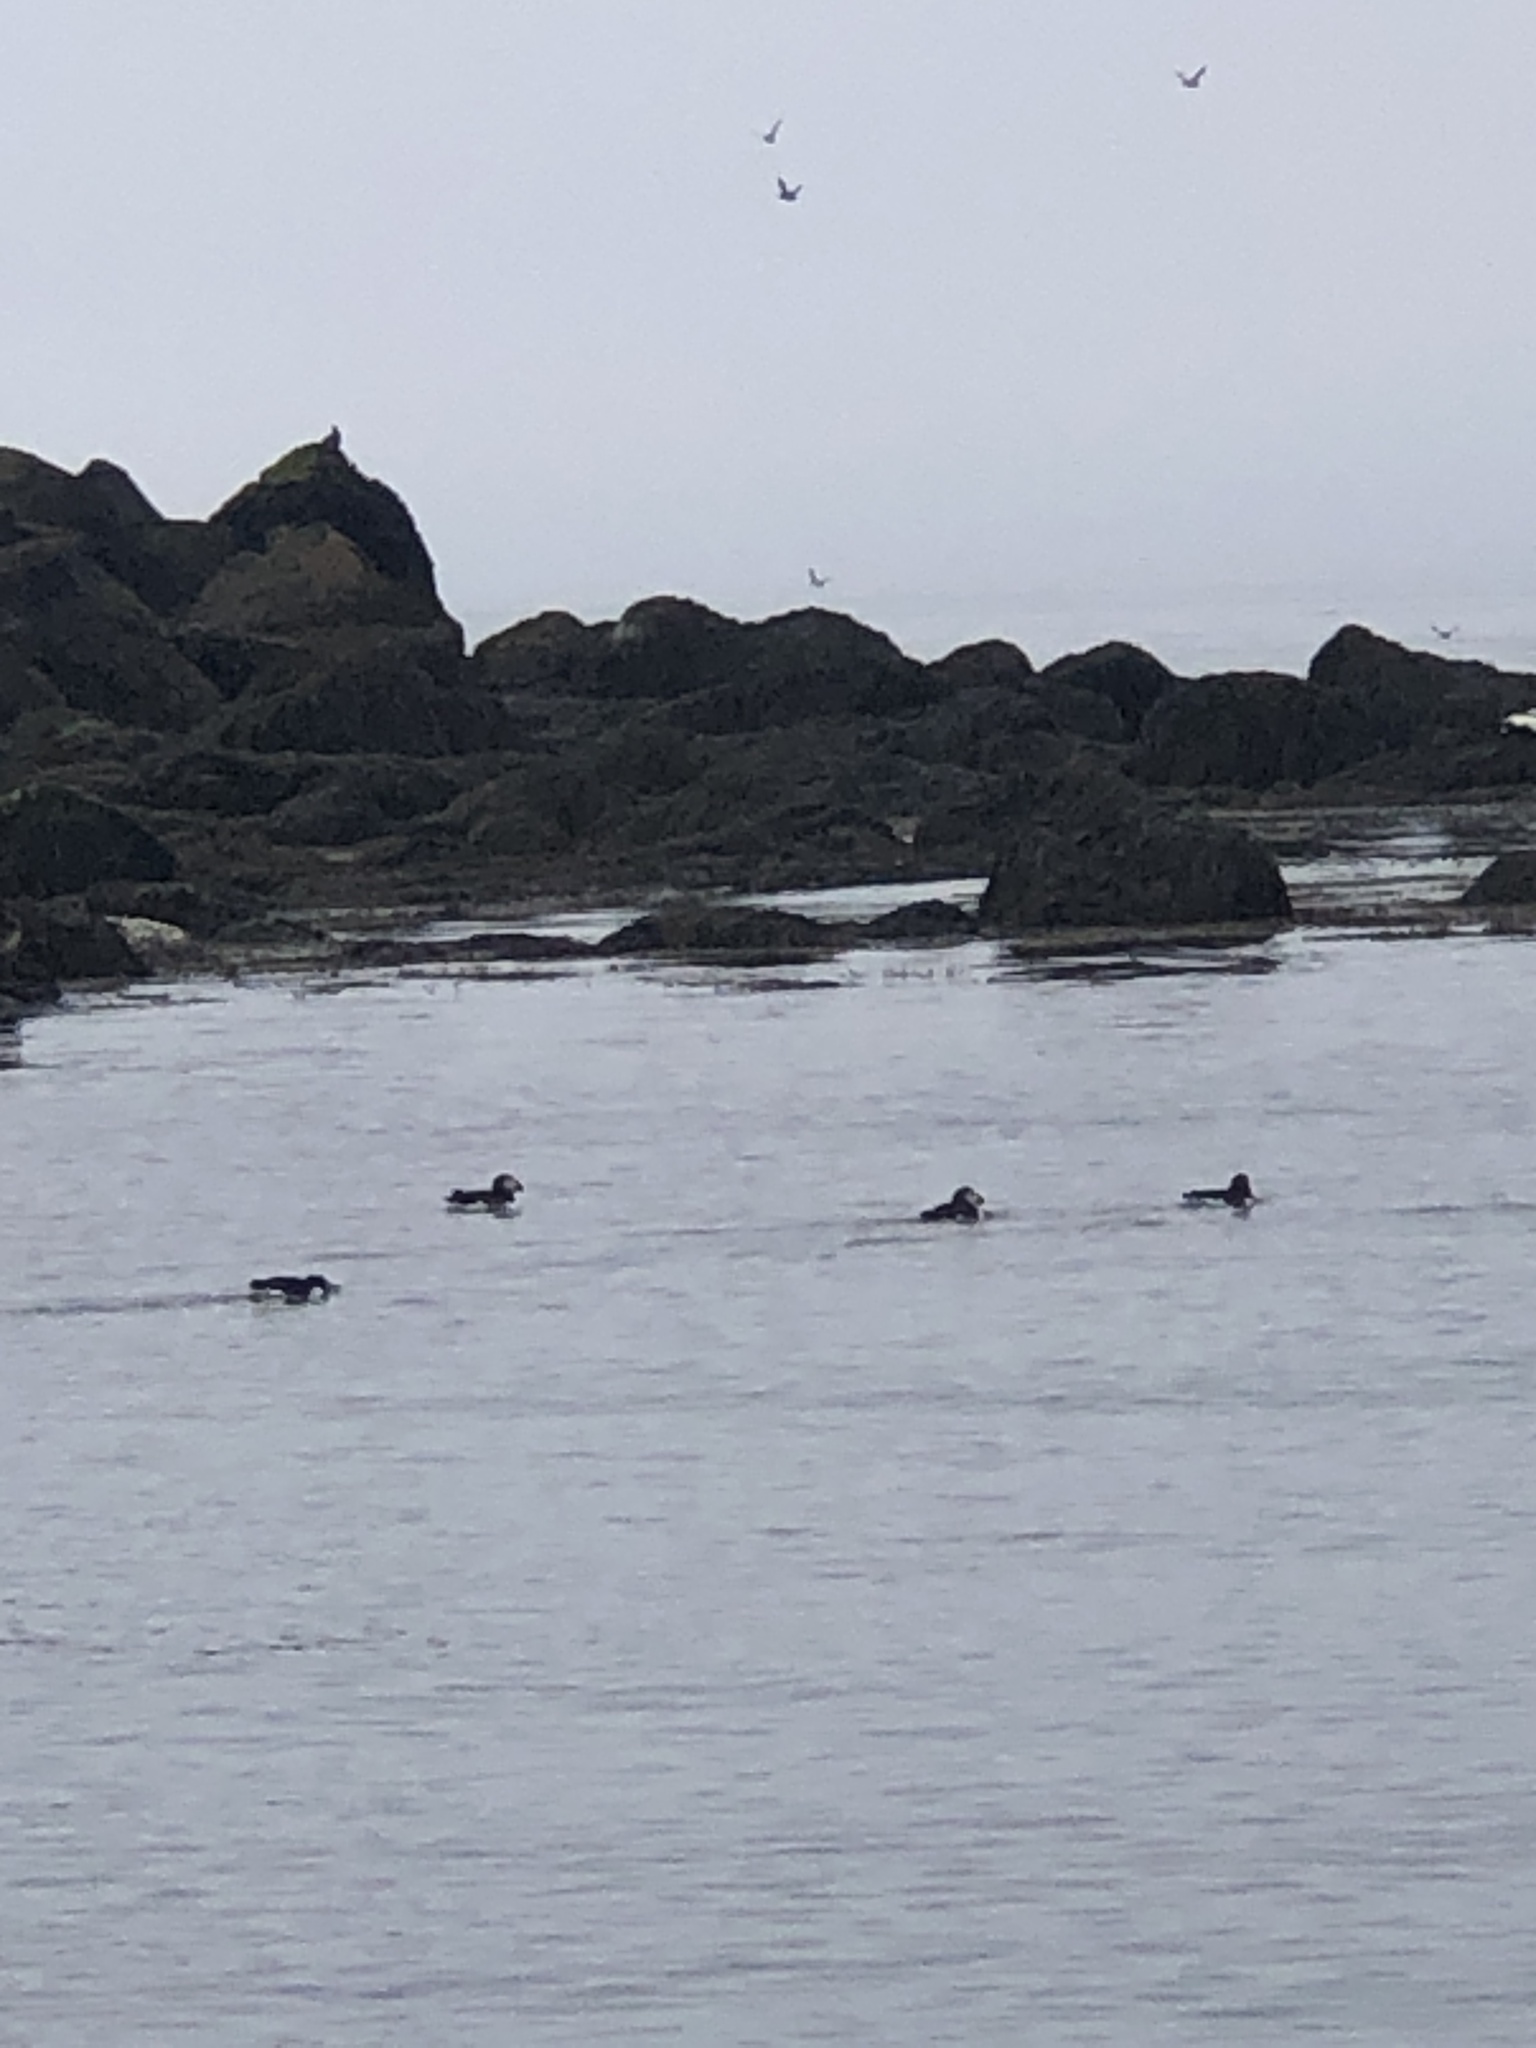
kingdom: Animalia
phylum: Chordata
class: Aves
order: Charadriiformes
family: Alcidae
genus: Fratercula
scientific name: Fratercula arctica
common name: Atlantic puffin
